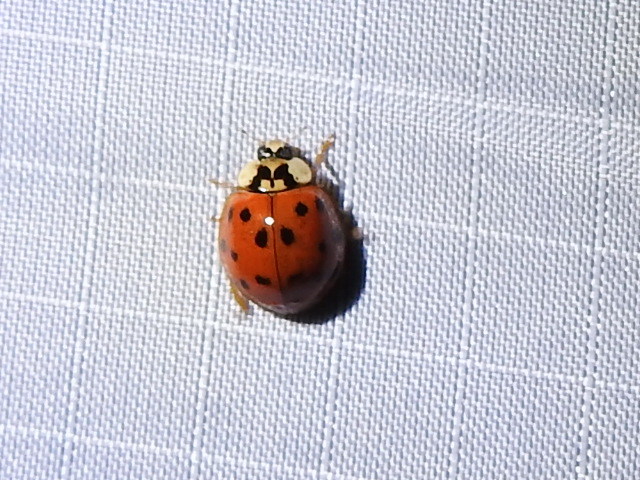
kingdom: Animalia
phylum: Arthropoda
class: Insecta
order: Coleoptera
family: Coccinellidae
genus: Harmonia
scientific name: Harmonia axyridis
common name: Harlequin ladybird
